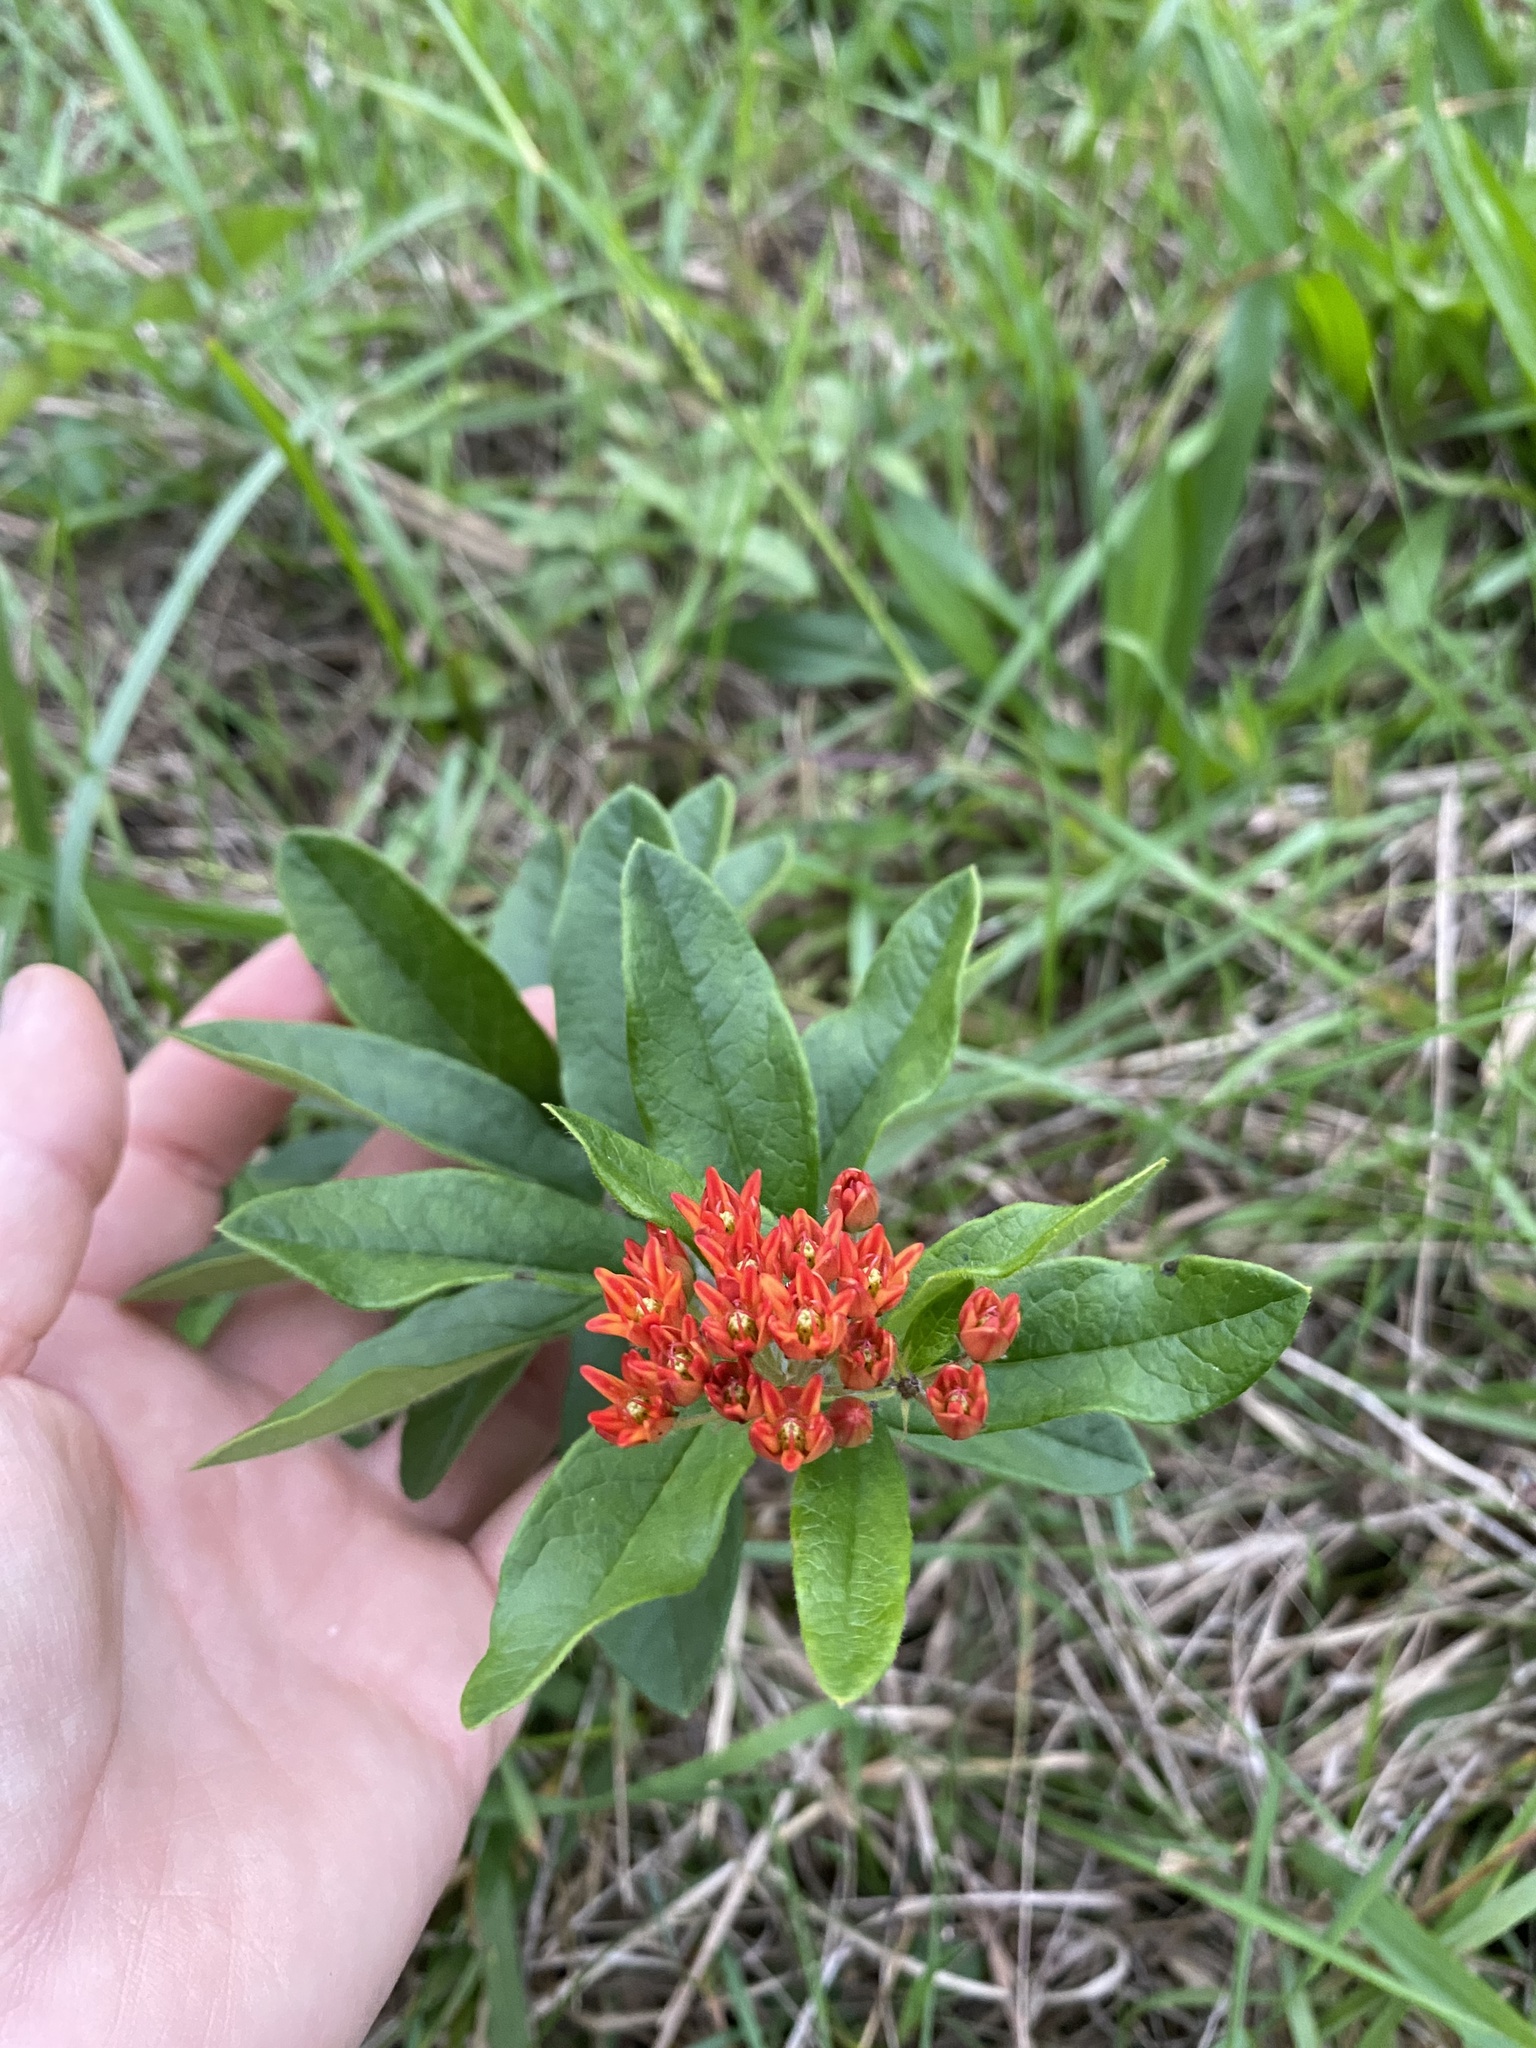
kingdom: Plantae
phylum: Tracheophyta
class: Magnoliopsida
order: Gentianales
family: Apocynaceae
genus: Asclepias
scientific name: Asclepias tuberosa
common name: Butterfly milkweed
